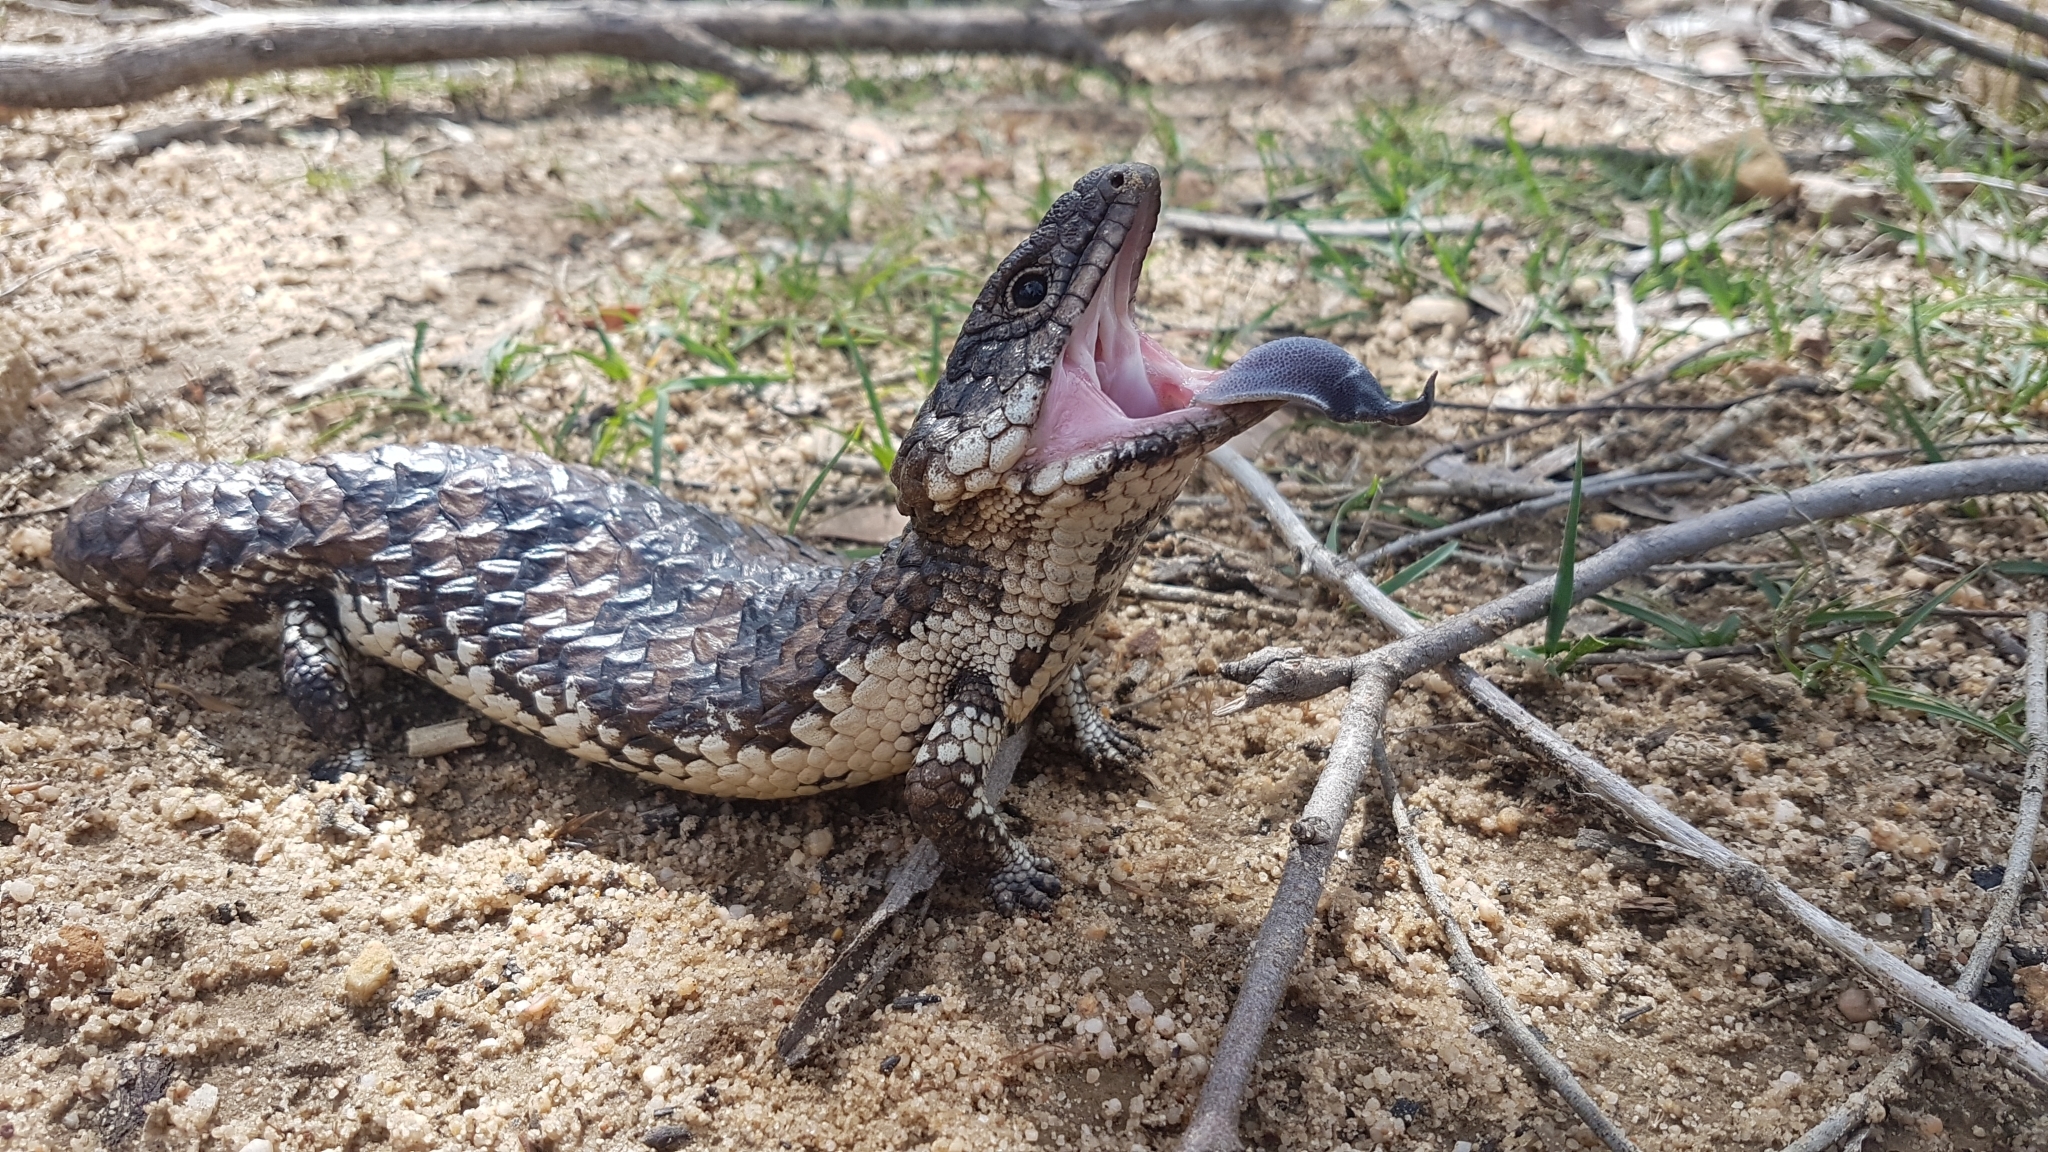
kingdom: Animalia
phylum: Chordata
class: Squamata
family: Scincidae
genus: Tiliqua
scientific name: Tiliqua rugosa
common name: Pinecone lizard
